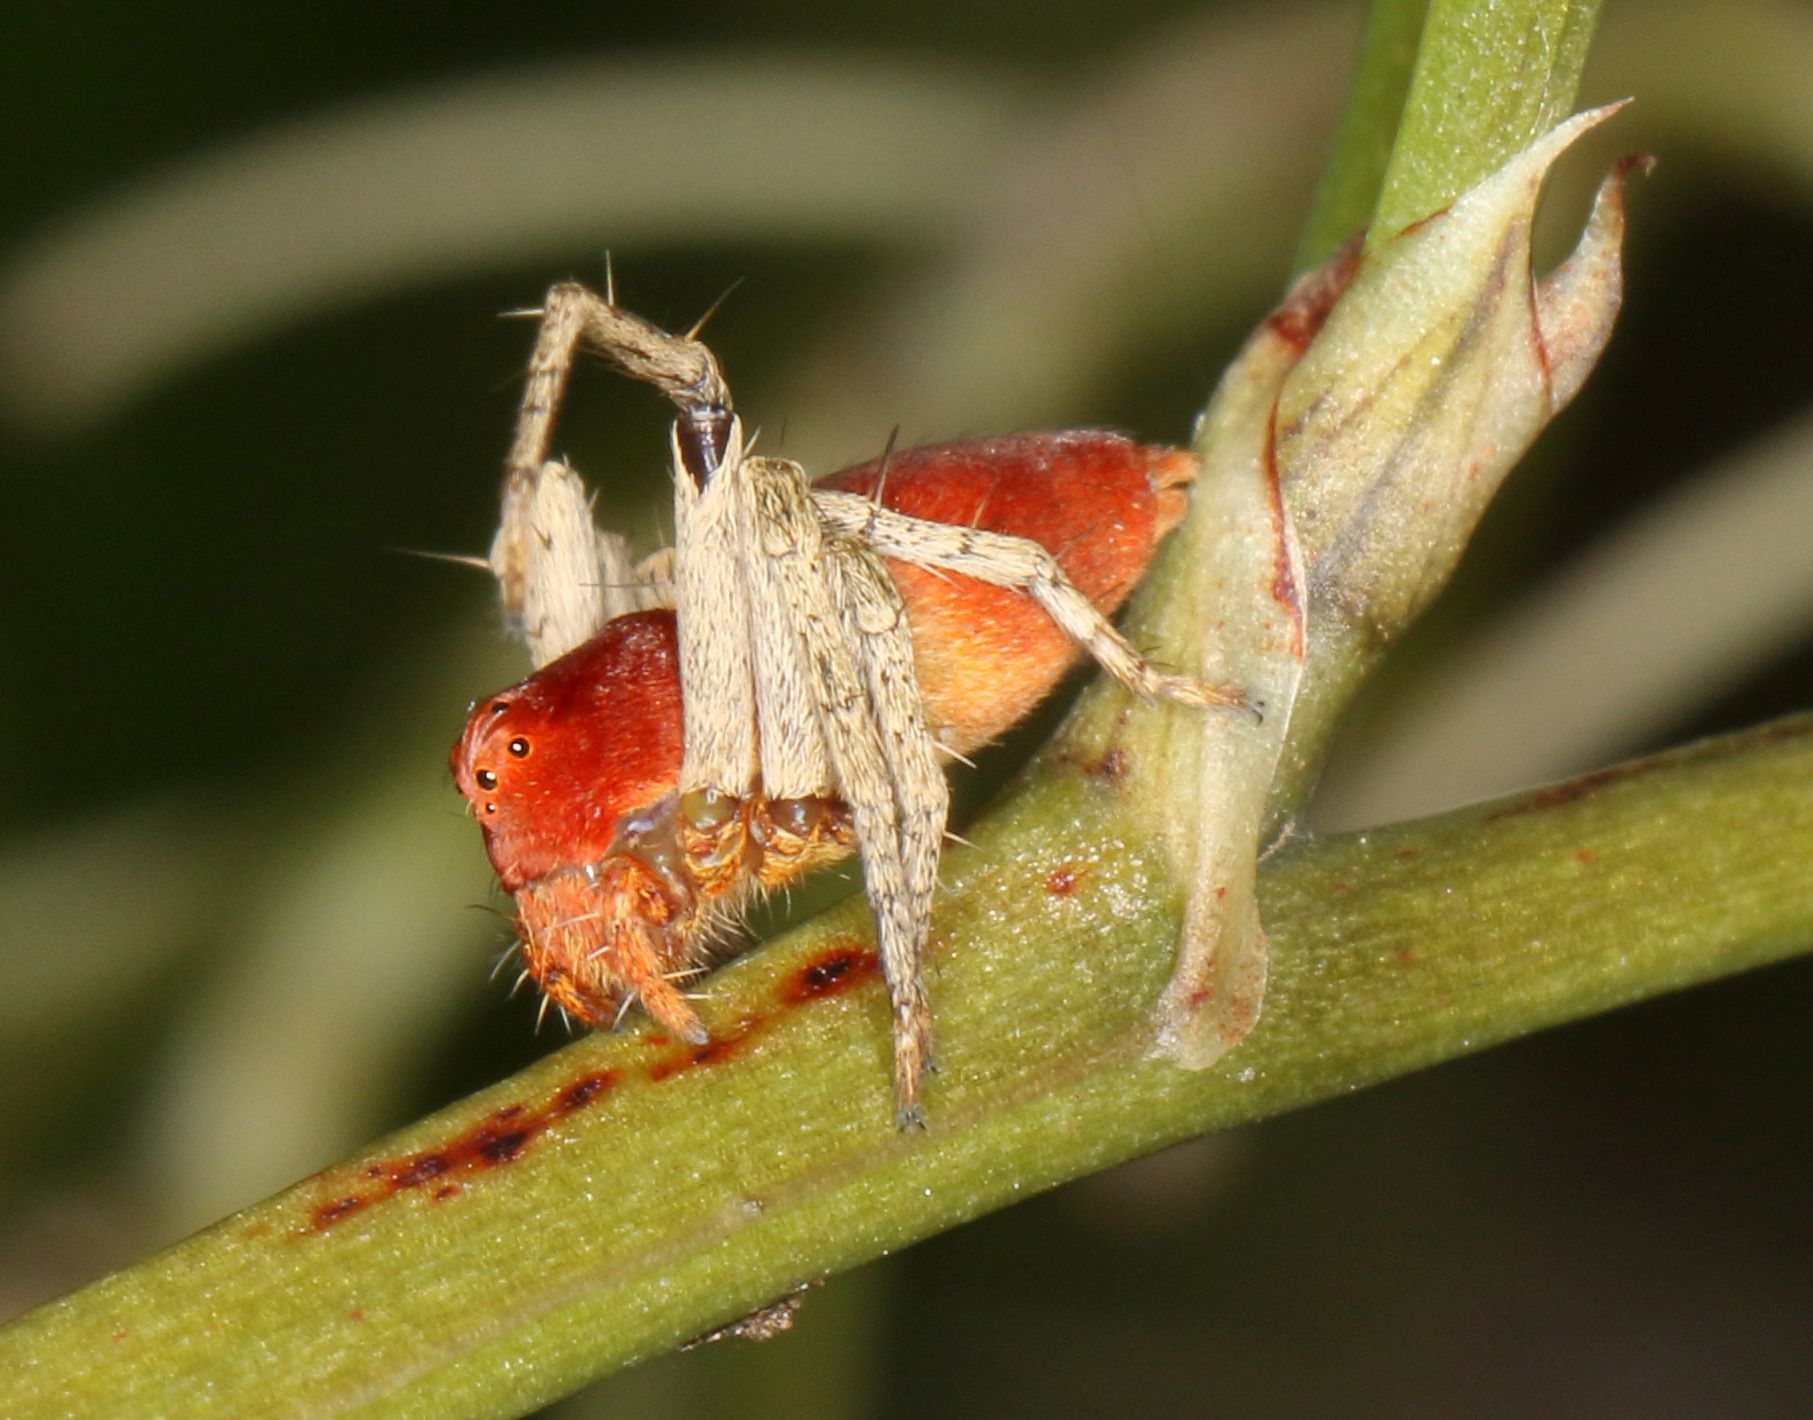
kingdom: Animalia
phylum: Arthropoda
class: Arachnida
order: Araneae
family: Oxyopidae
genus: Oxyopes
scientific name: Oxyopes flavipalpis
